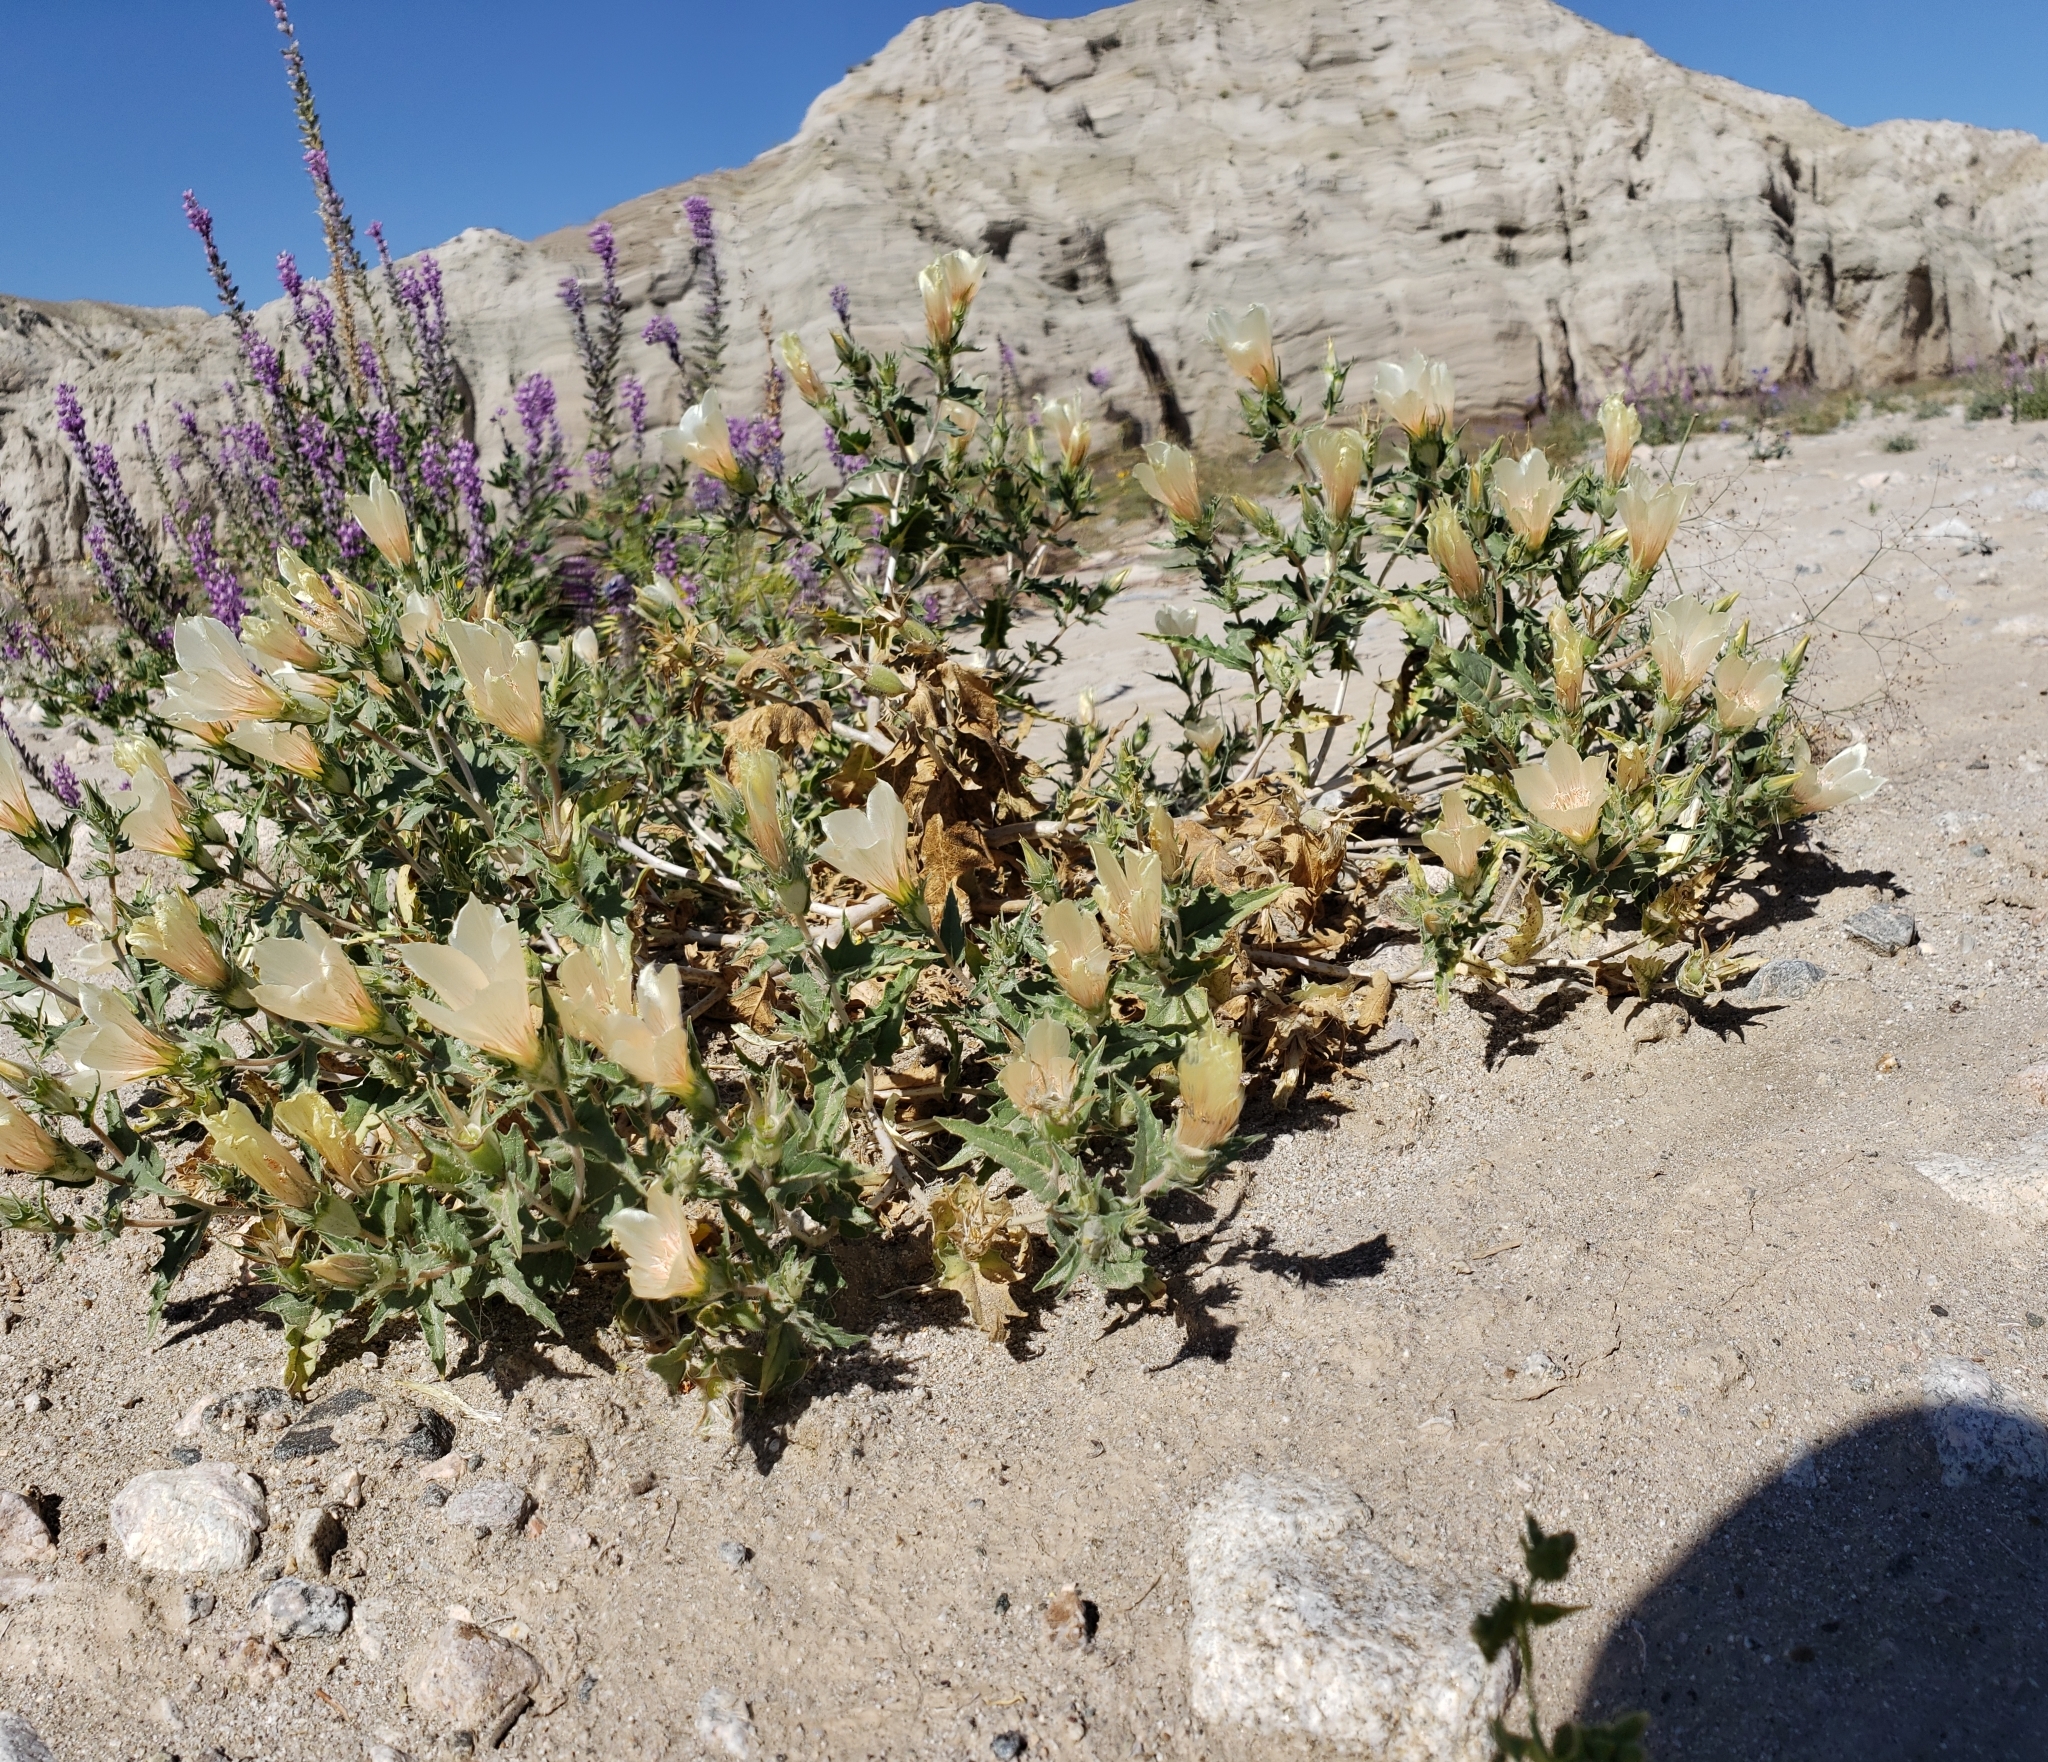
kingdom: Plantae
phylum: Tracheophyta
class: Magnoliopsida
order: Cornales
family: Loasaceae
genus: Mentzelia
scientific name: Mentzelia involucrata
